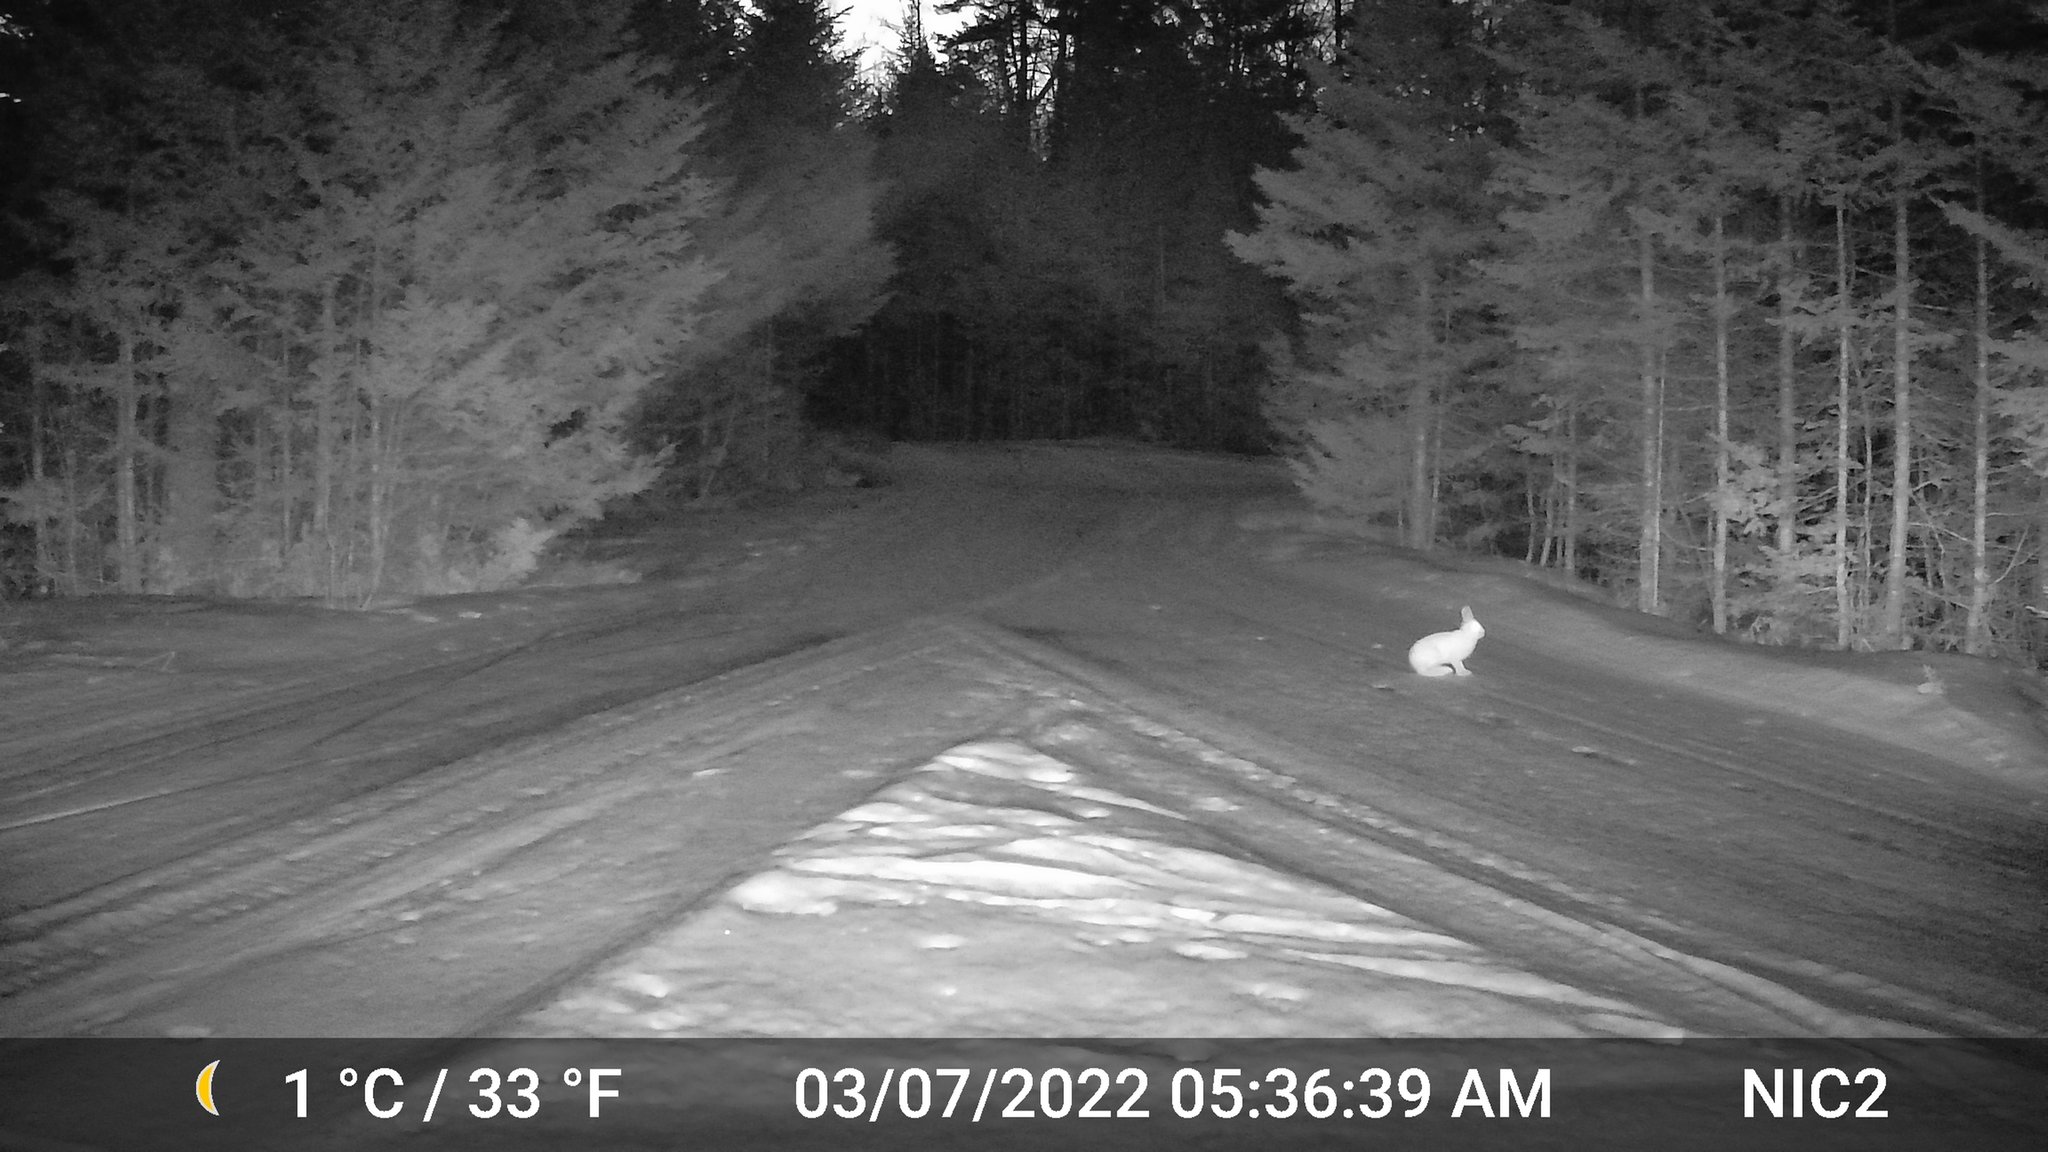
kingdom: Animalia
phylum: Chordata
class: Mammalia
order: Lagomorpha
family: Leporidae
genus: Lepus
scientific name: Lepus americanus
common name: Snowshoe hare
